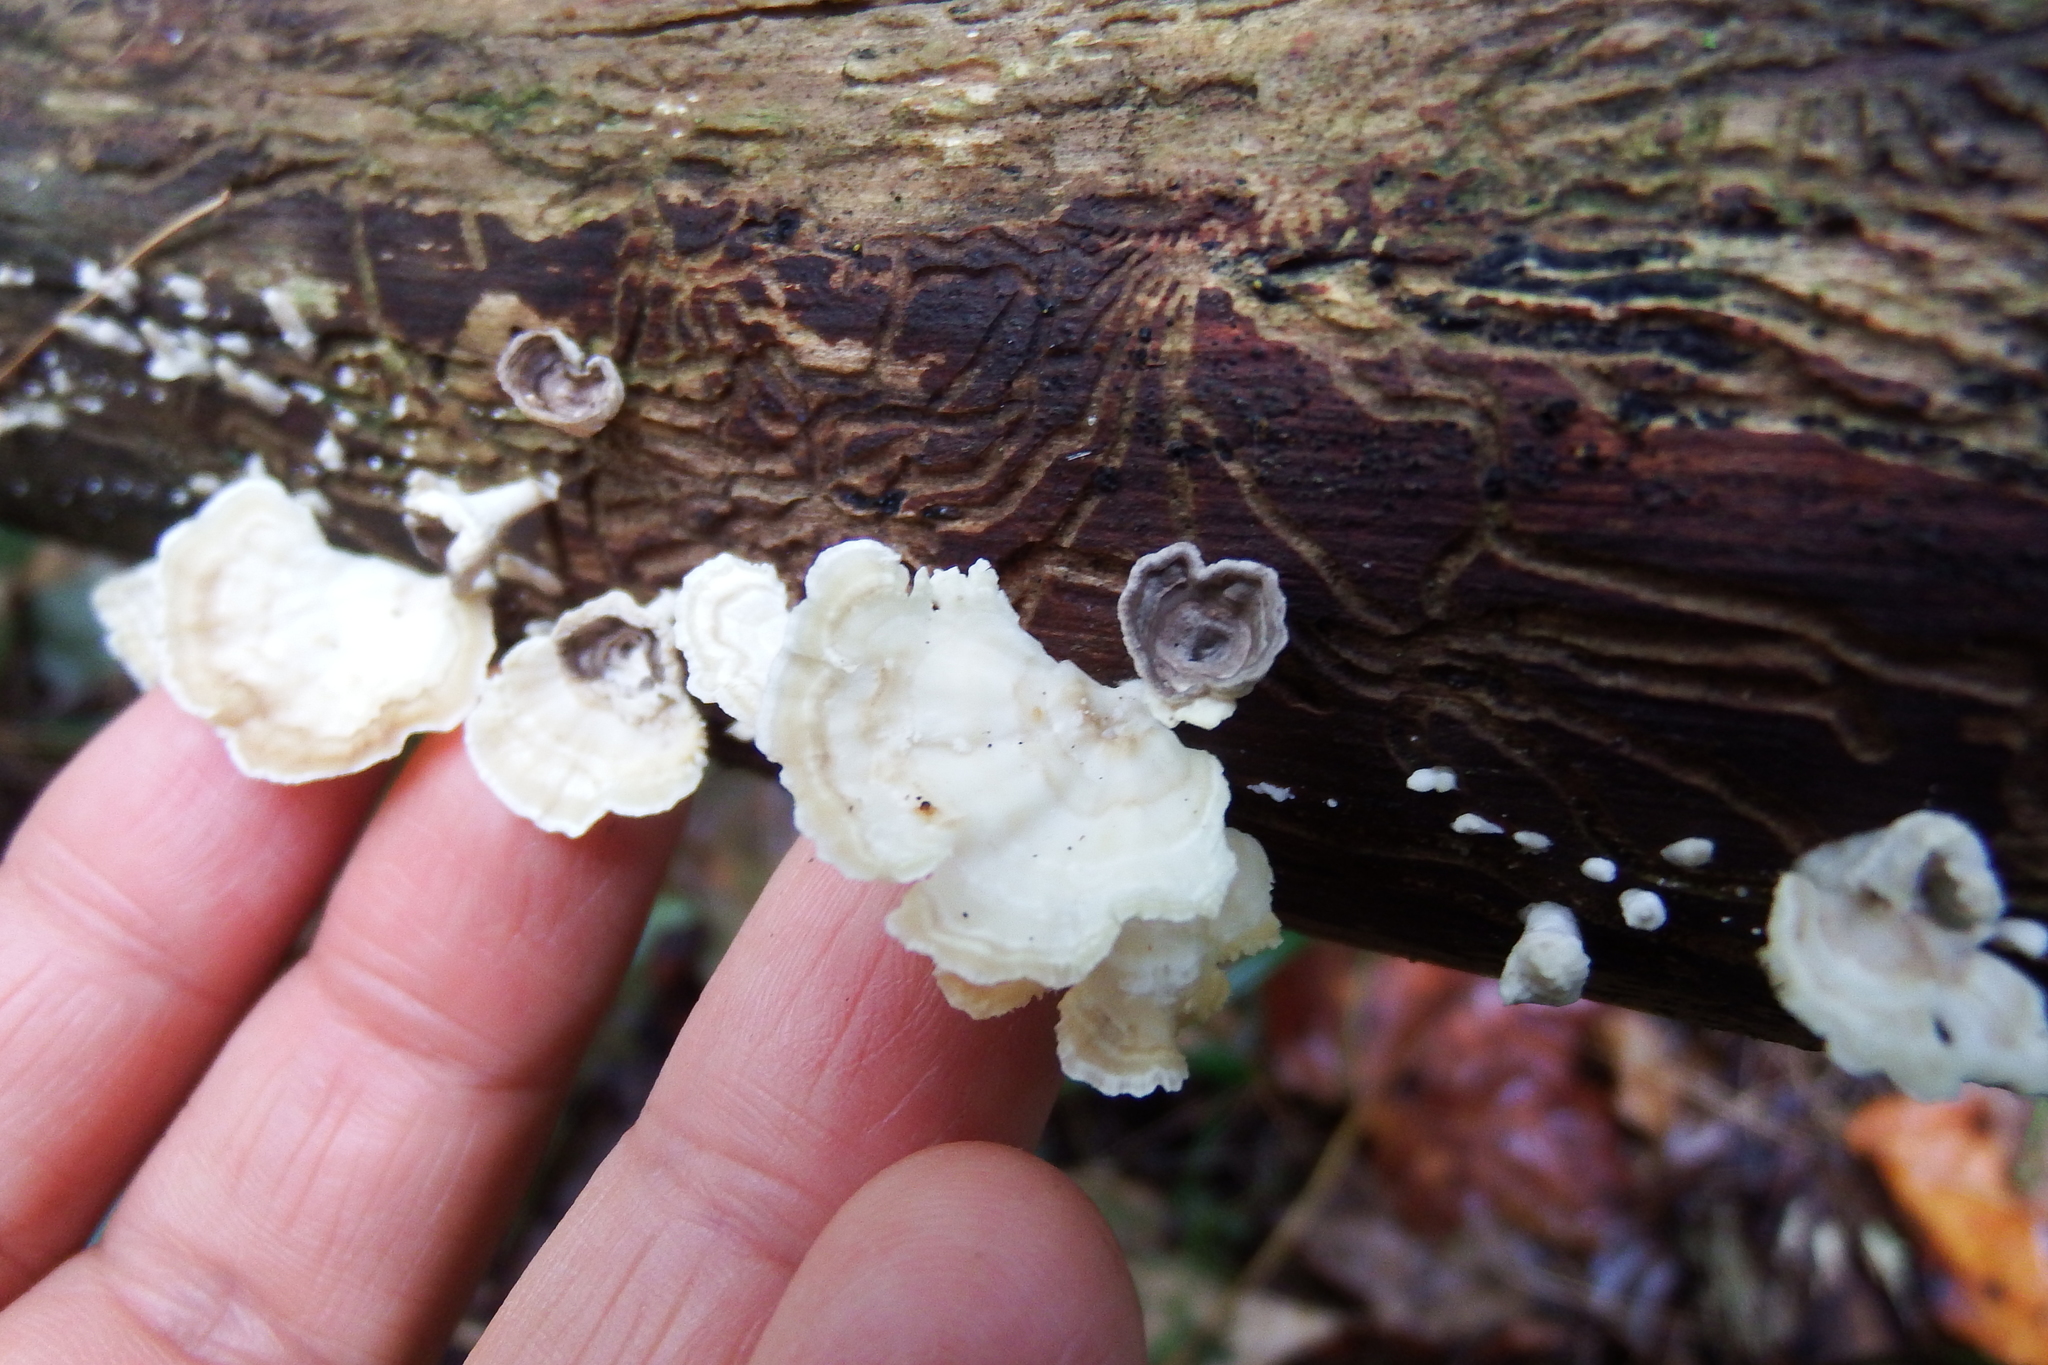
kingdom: Fungi
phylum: Basidiomycota
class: Agaricomycetes
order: Polyporales
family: Polyporaceae
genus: Poronidulus
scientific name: Poronidulus conchifer
